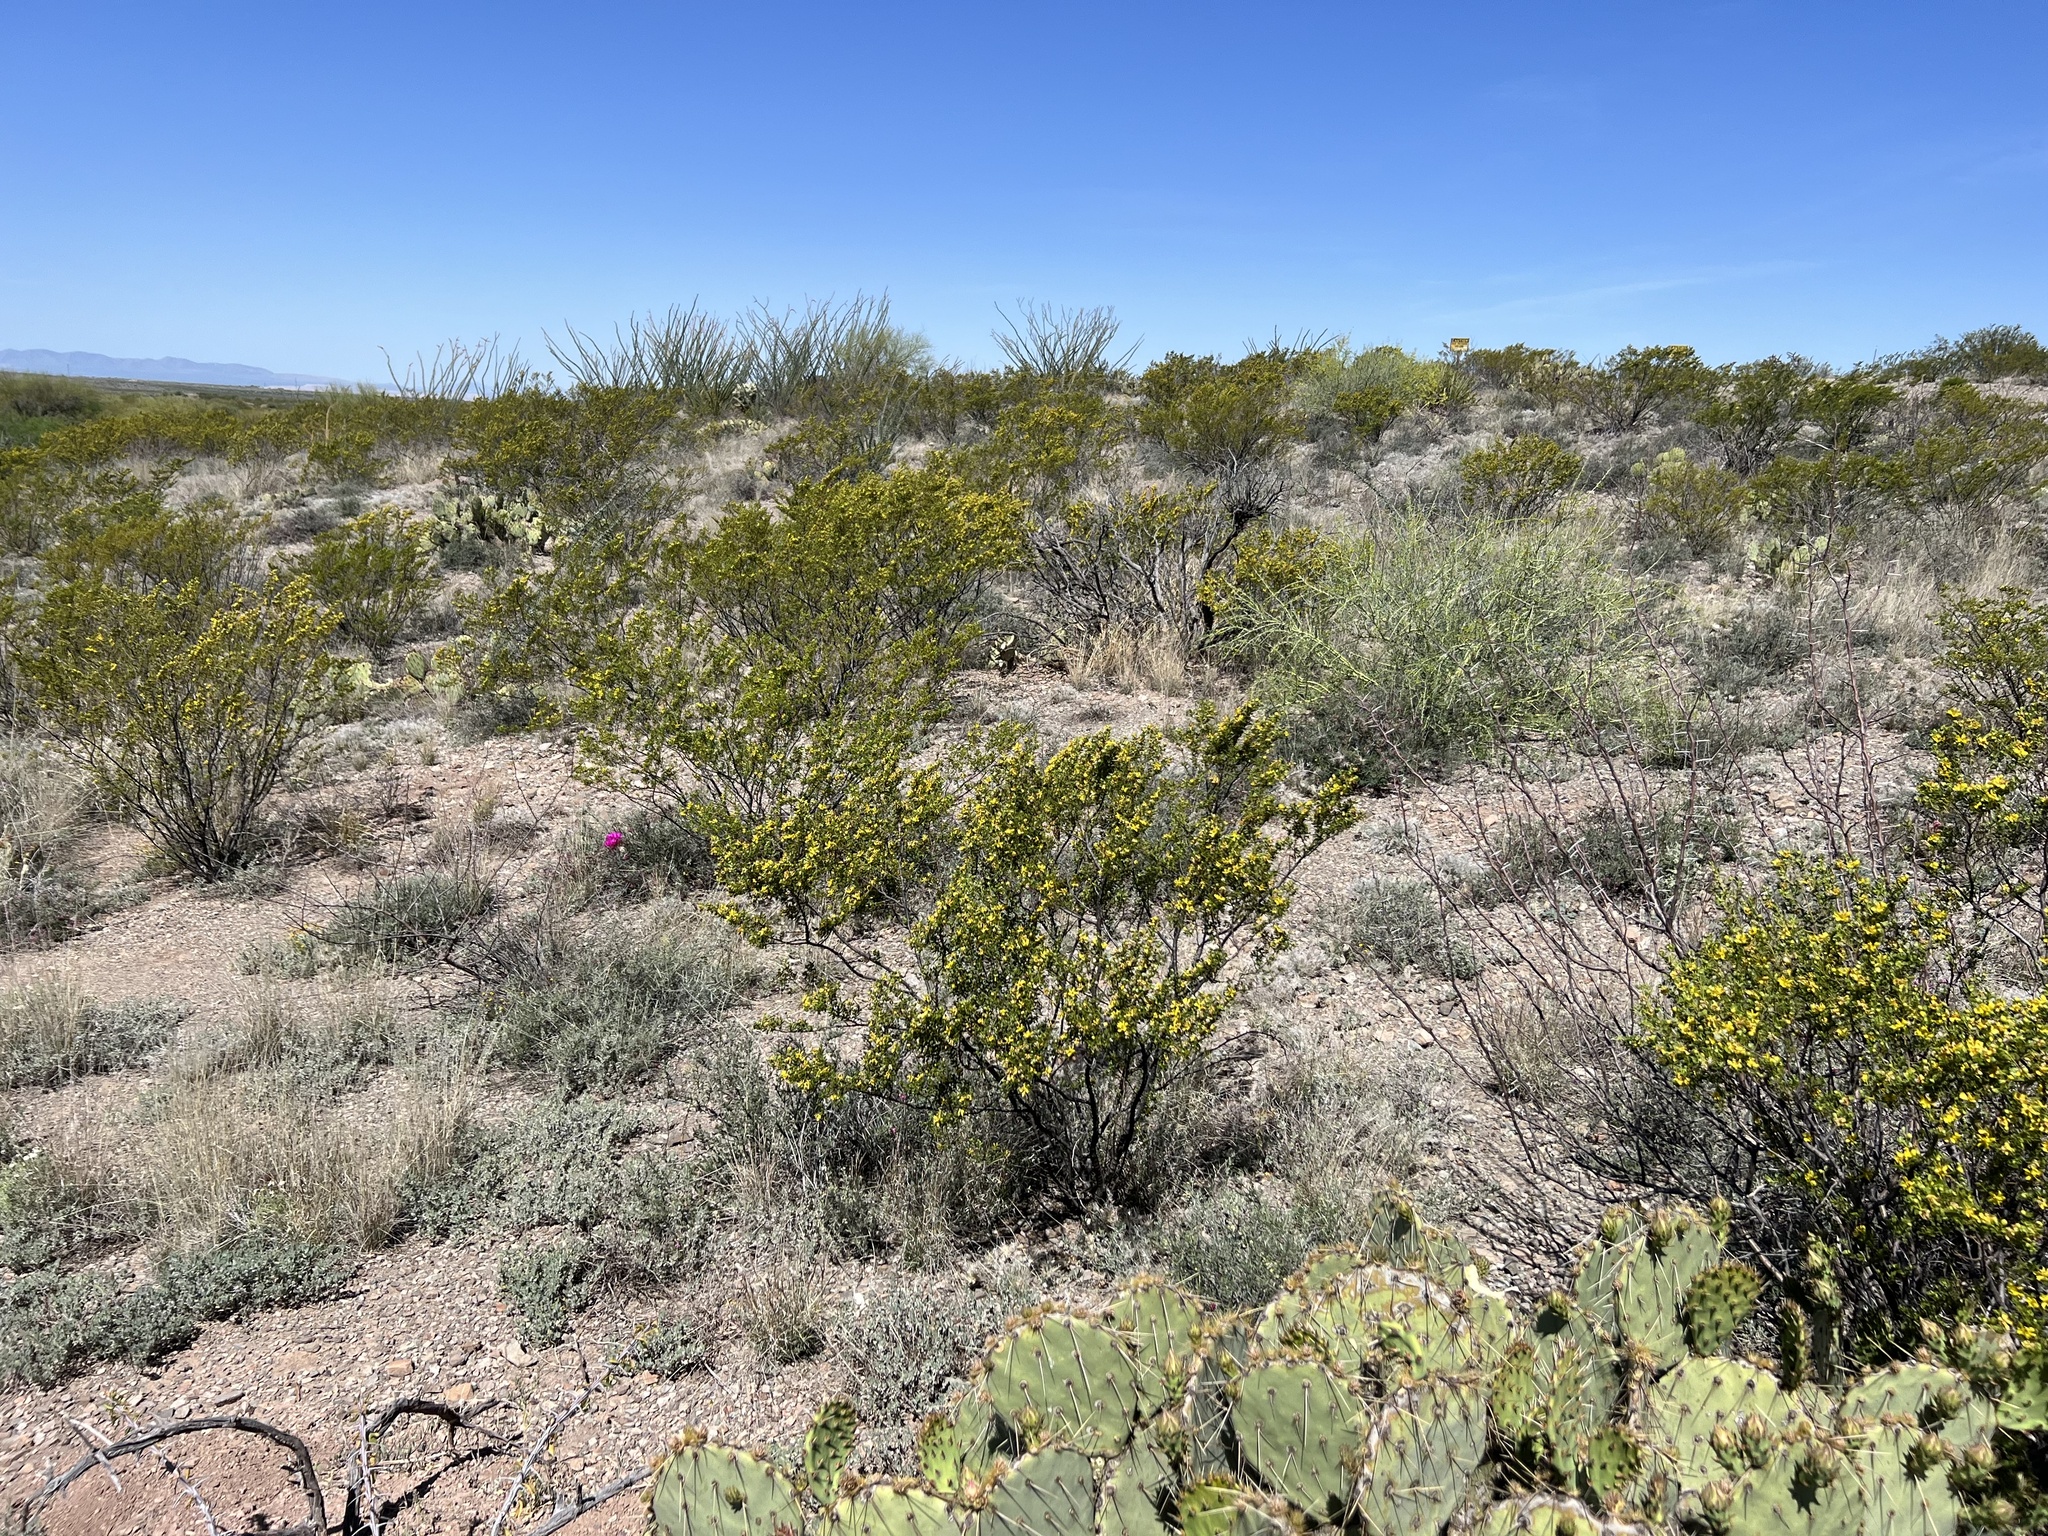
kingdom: Plantae
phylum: Tracheophyta
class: Magnoliopsida
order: Zygophyllales
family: Zygophyllaceae
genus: Larrea
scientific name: Larrea tridentata
